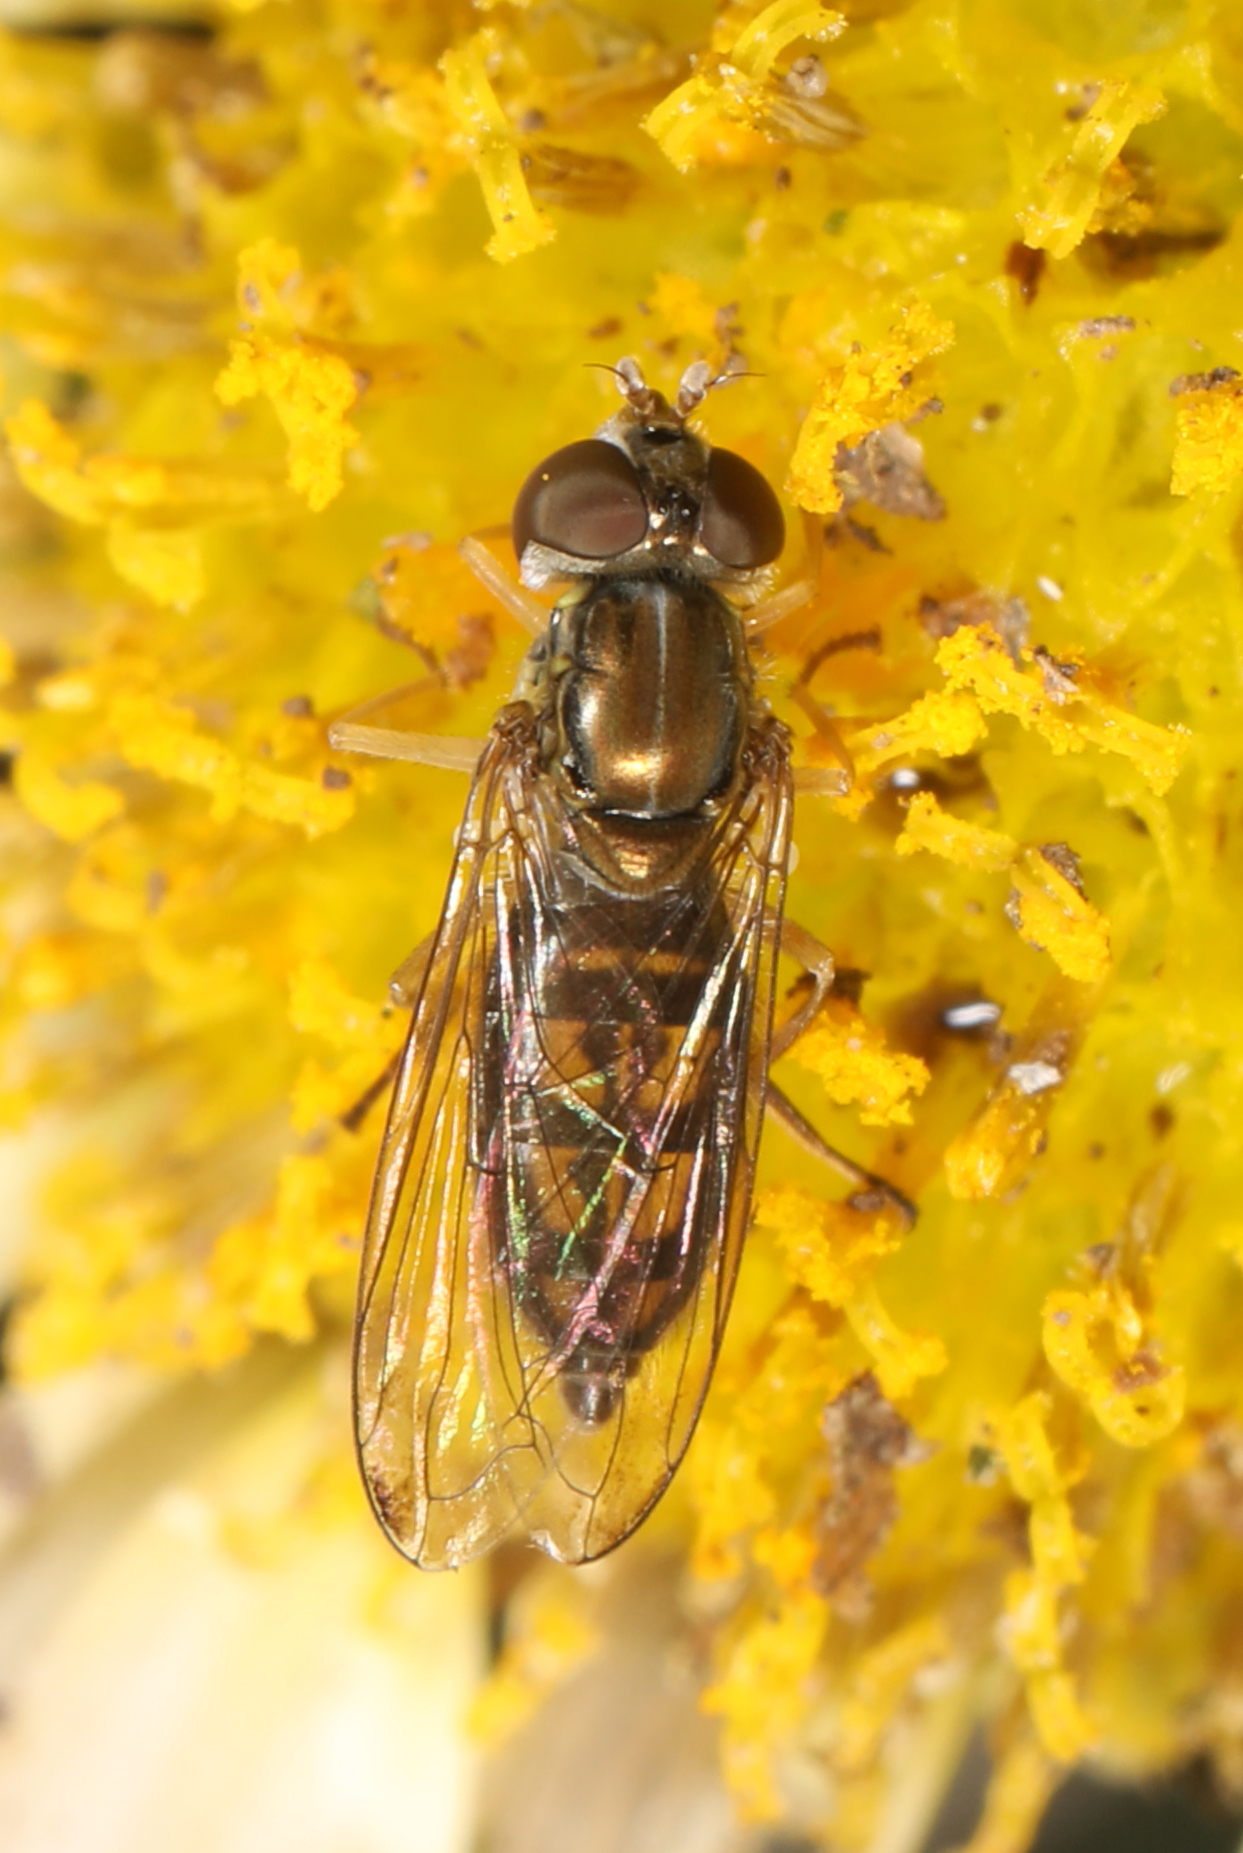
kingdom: Animalia
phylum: Arthropoda
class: Insecta
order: Diptera
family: Syrphidae
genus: Toxomerus
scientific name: Toxomerus marginatus
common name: Syrphid fly
